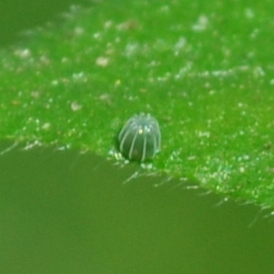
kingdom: Animalia
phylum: Arthropoda
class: Insecta
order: Lepidoptera
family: Nymphalidae
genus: Hypanartia
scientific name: Hypanartia bella
